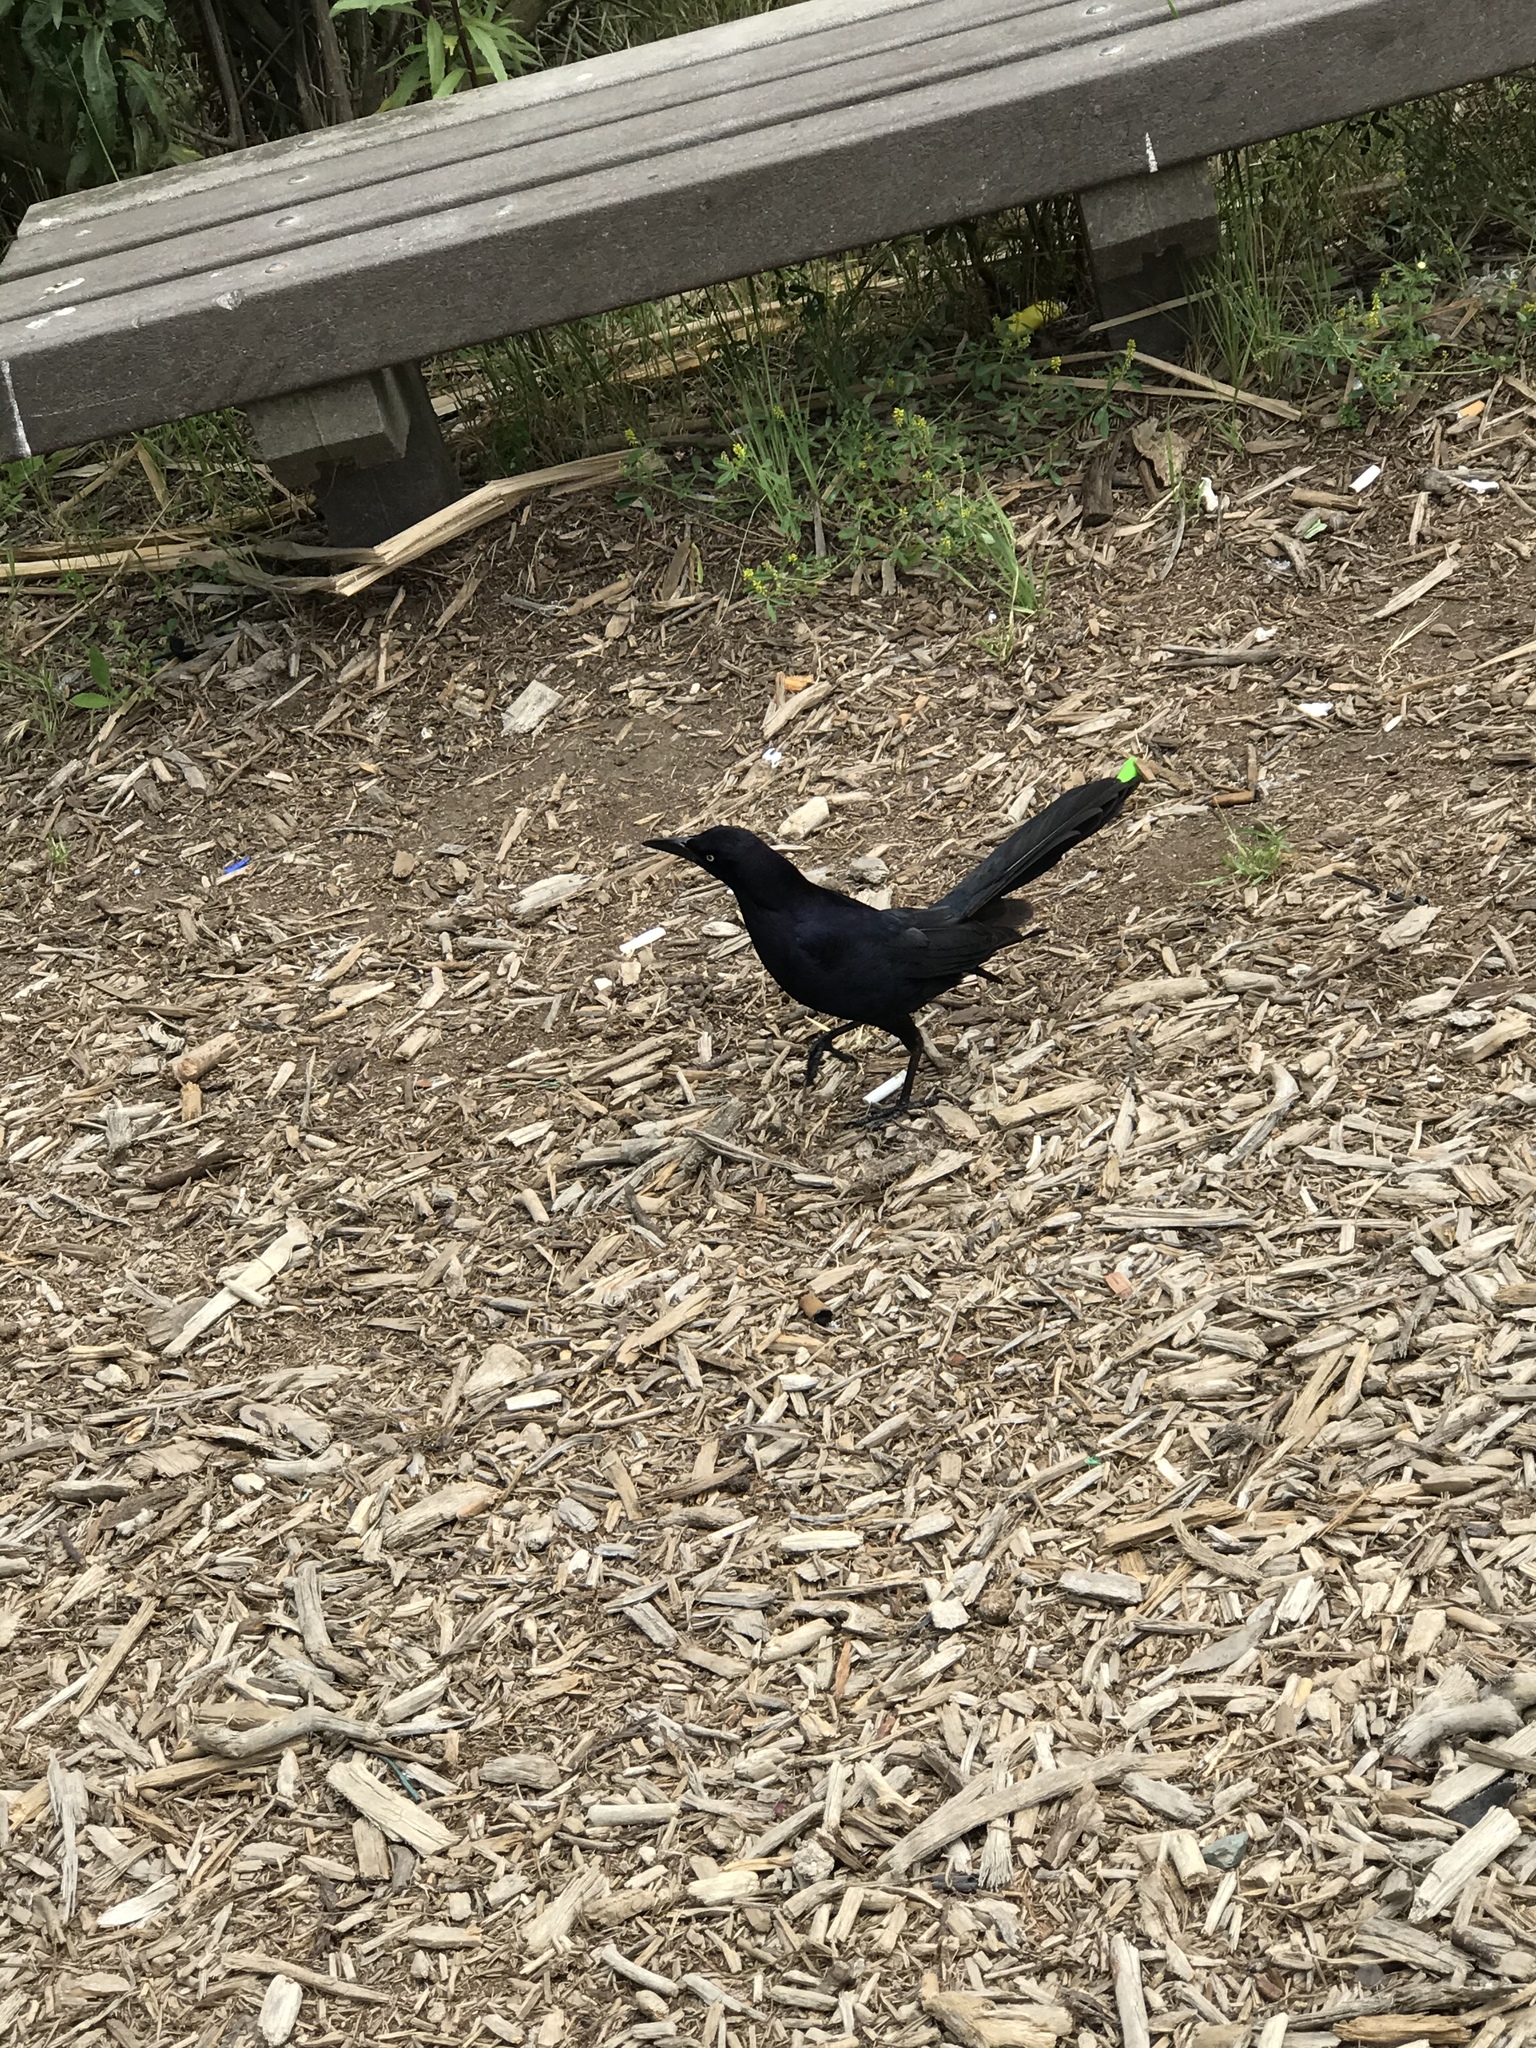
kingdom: Animalia
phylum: Chordata
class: Aves
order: Passeriformes
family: Icteridae
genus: Quiscalus
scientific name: Quiscalus mexicanus
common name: Great-tailed grackle
